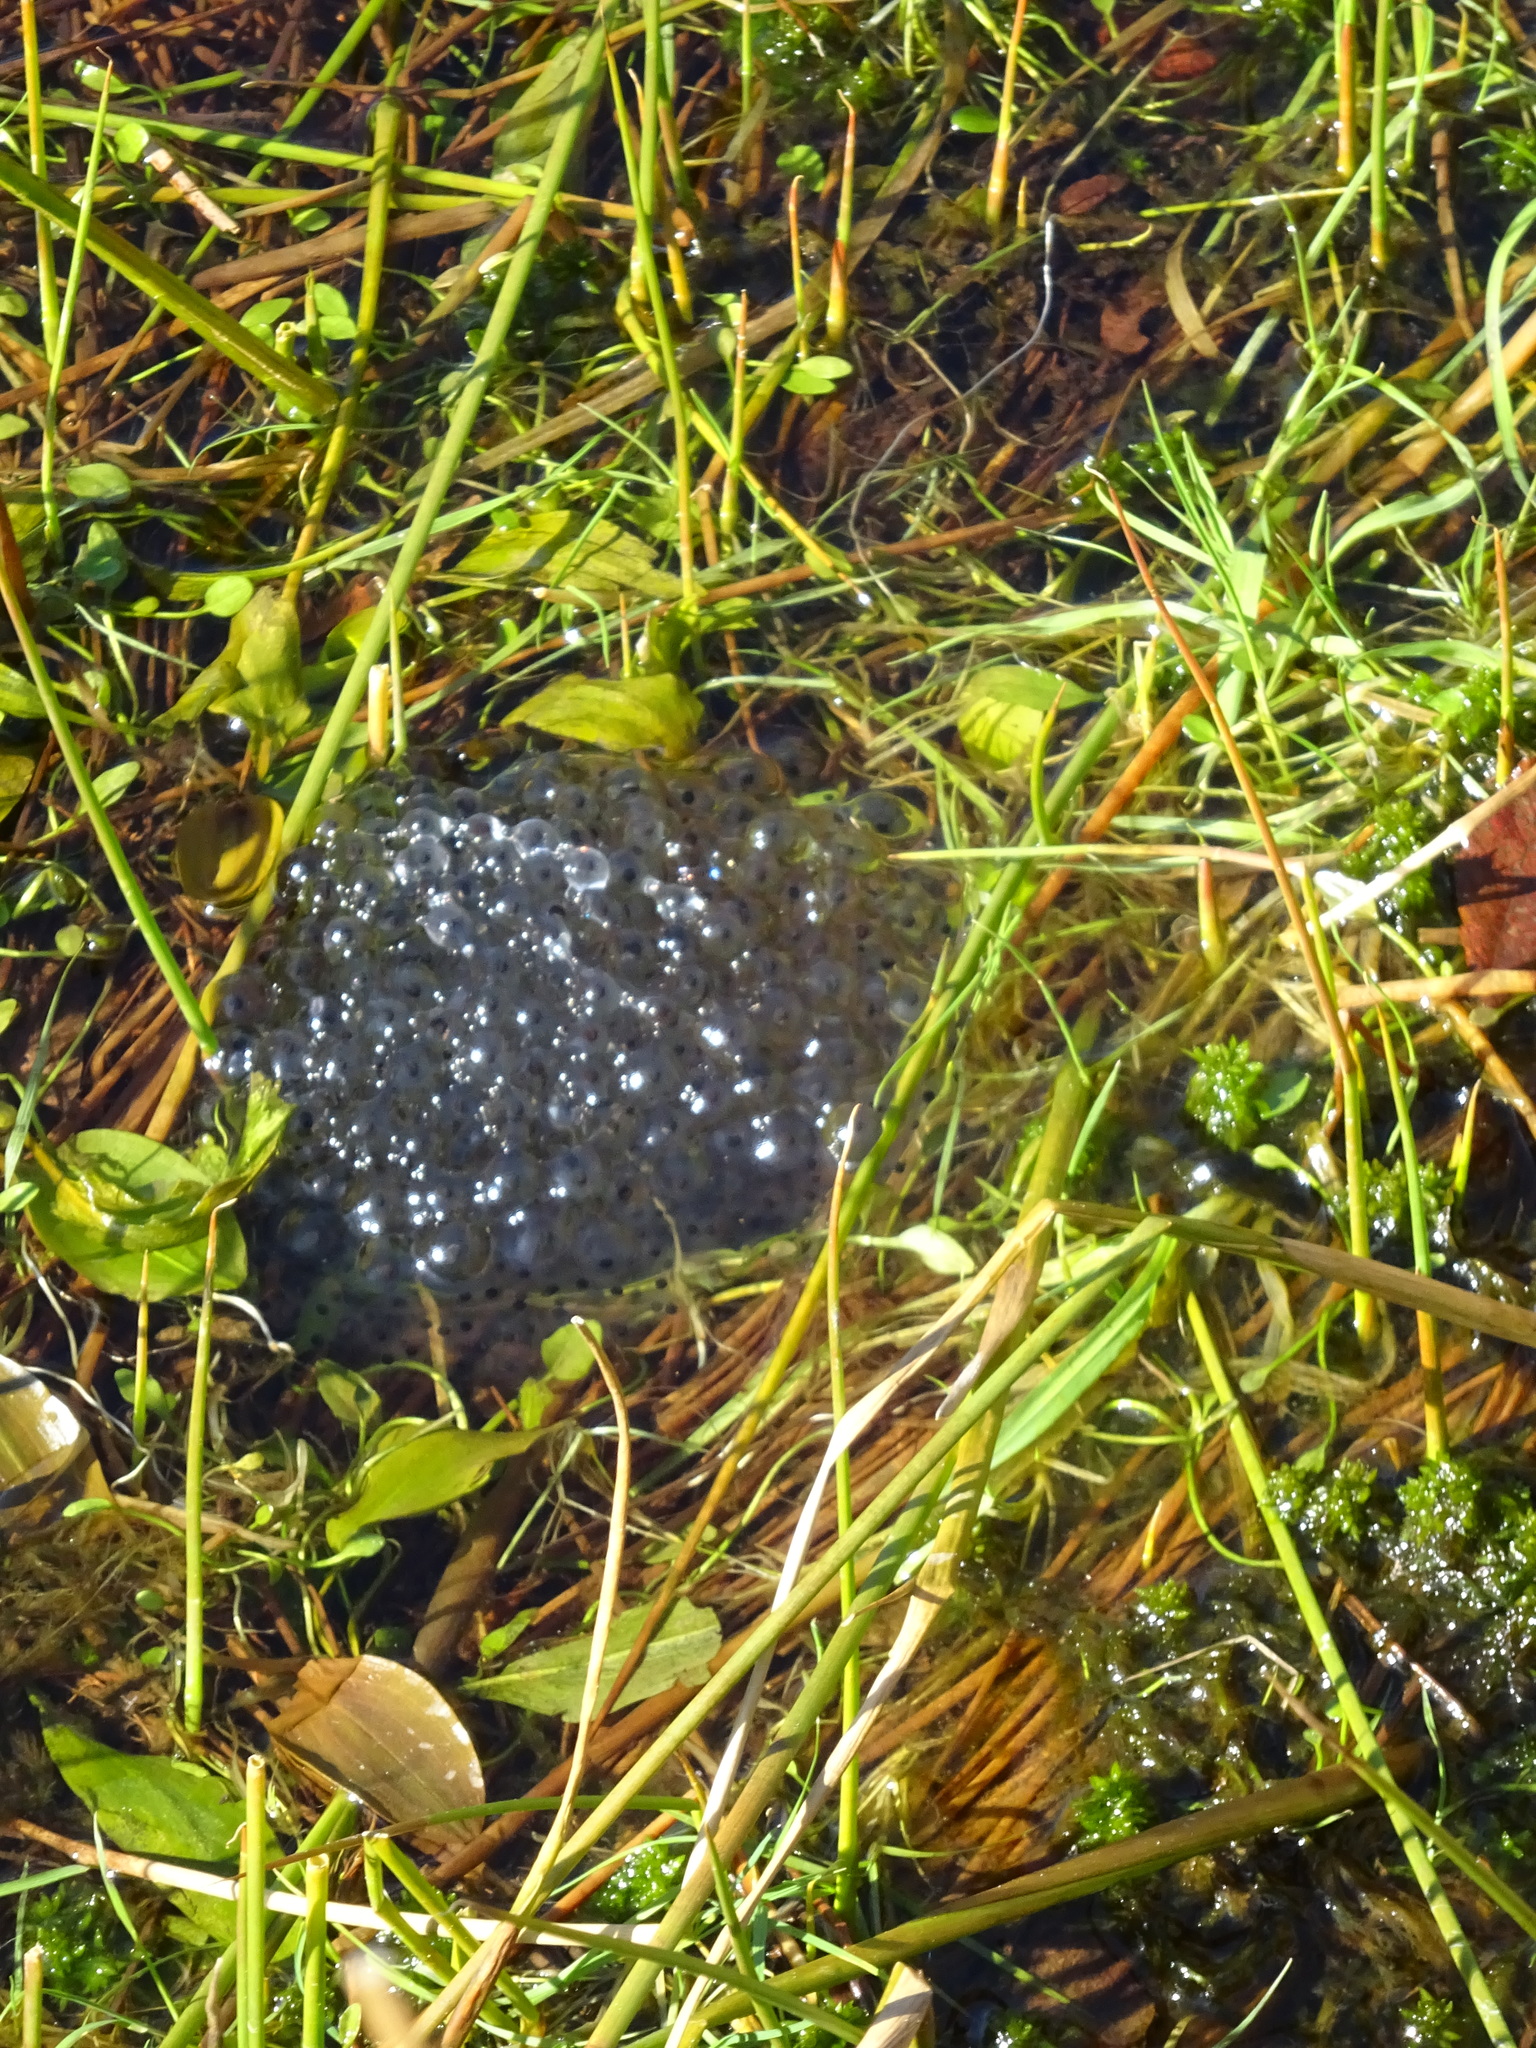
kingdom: Animalia
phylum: Chordata
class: Amphibia
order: Anura
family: Ranidae
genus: Rana
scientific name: Rana temporaria
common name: Common frog
